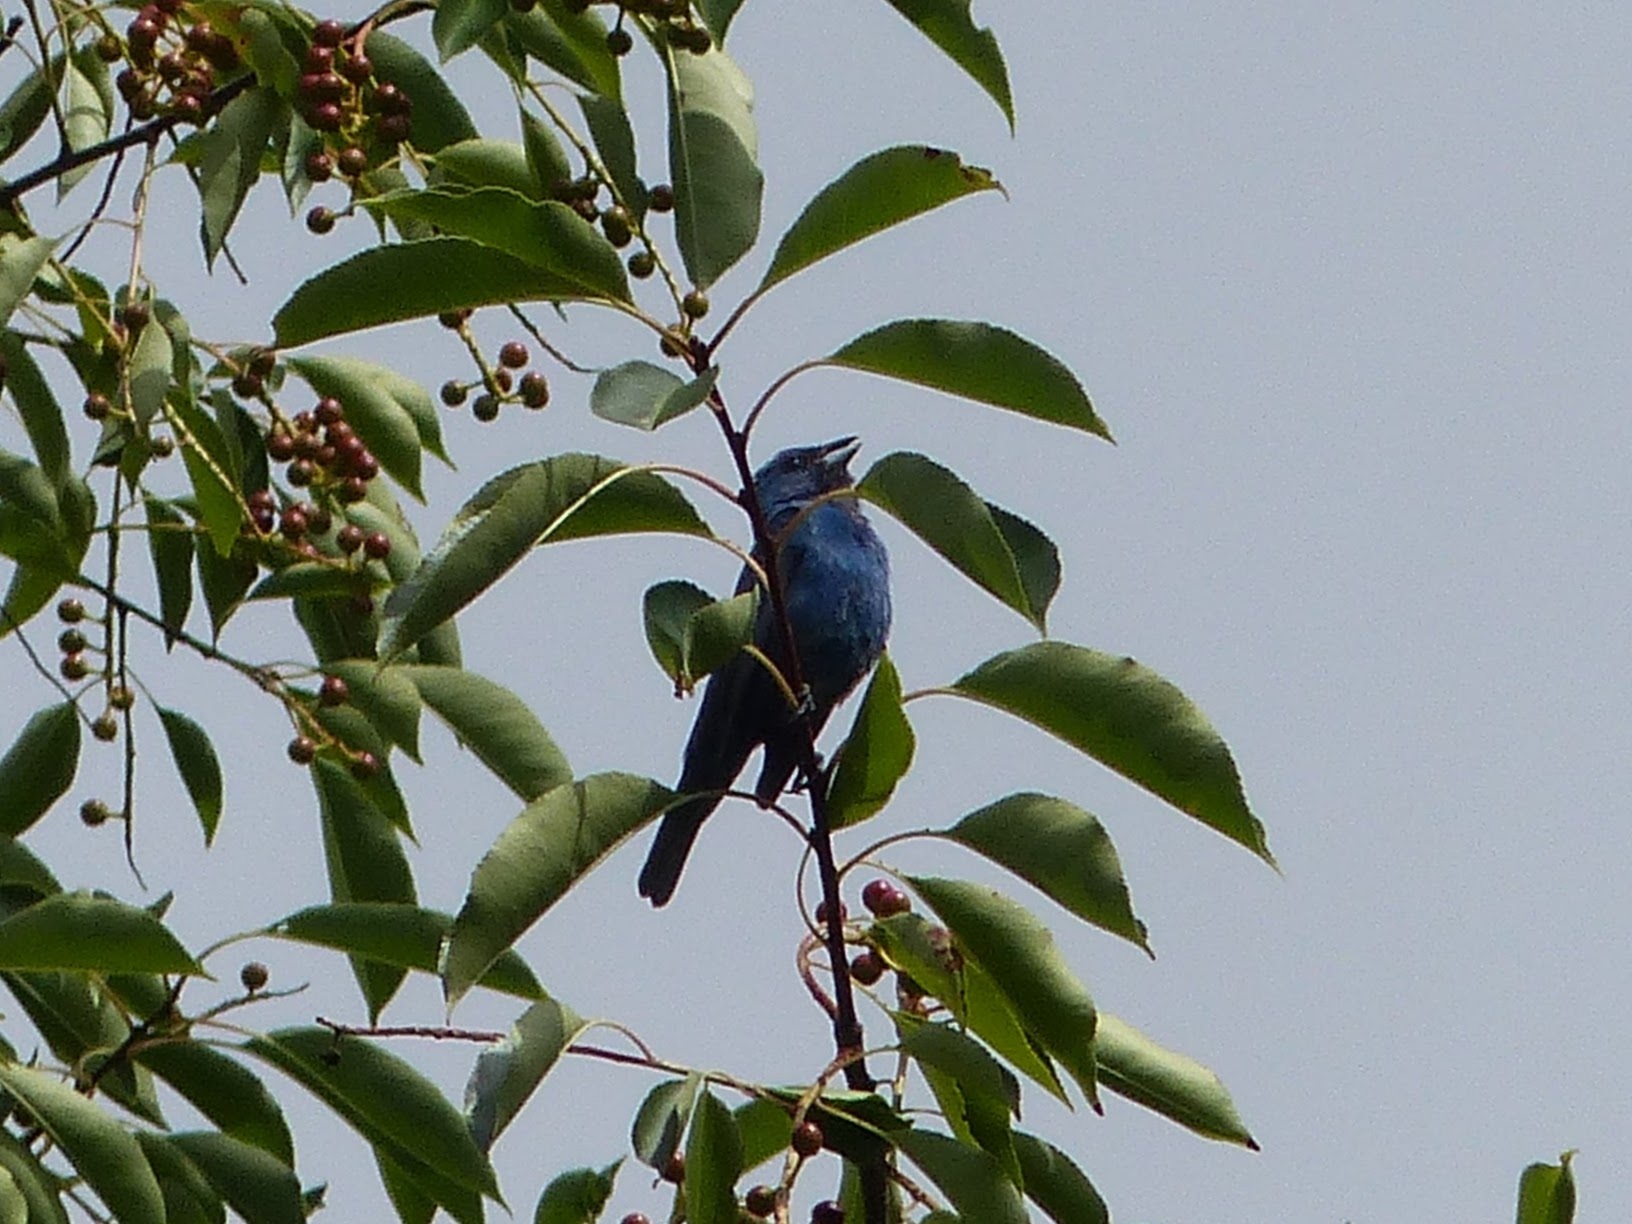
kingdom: Animalia
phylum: Chordata
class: Aves
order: Passeriformes
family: Cardinalidae
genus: Passerina
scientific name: Passerina cyanea
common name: Indigo bunting
